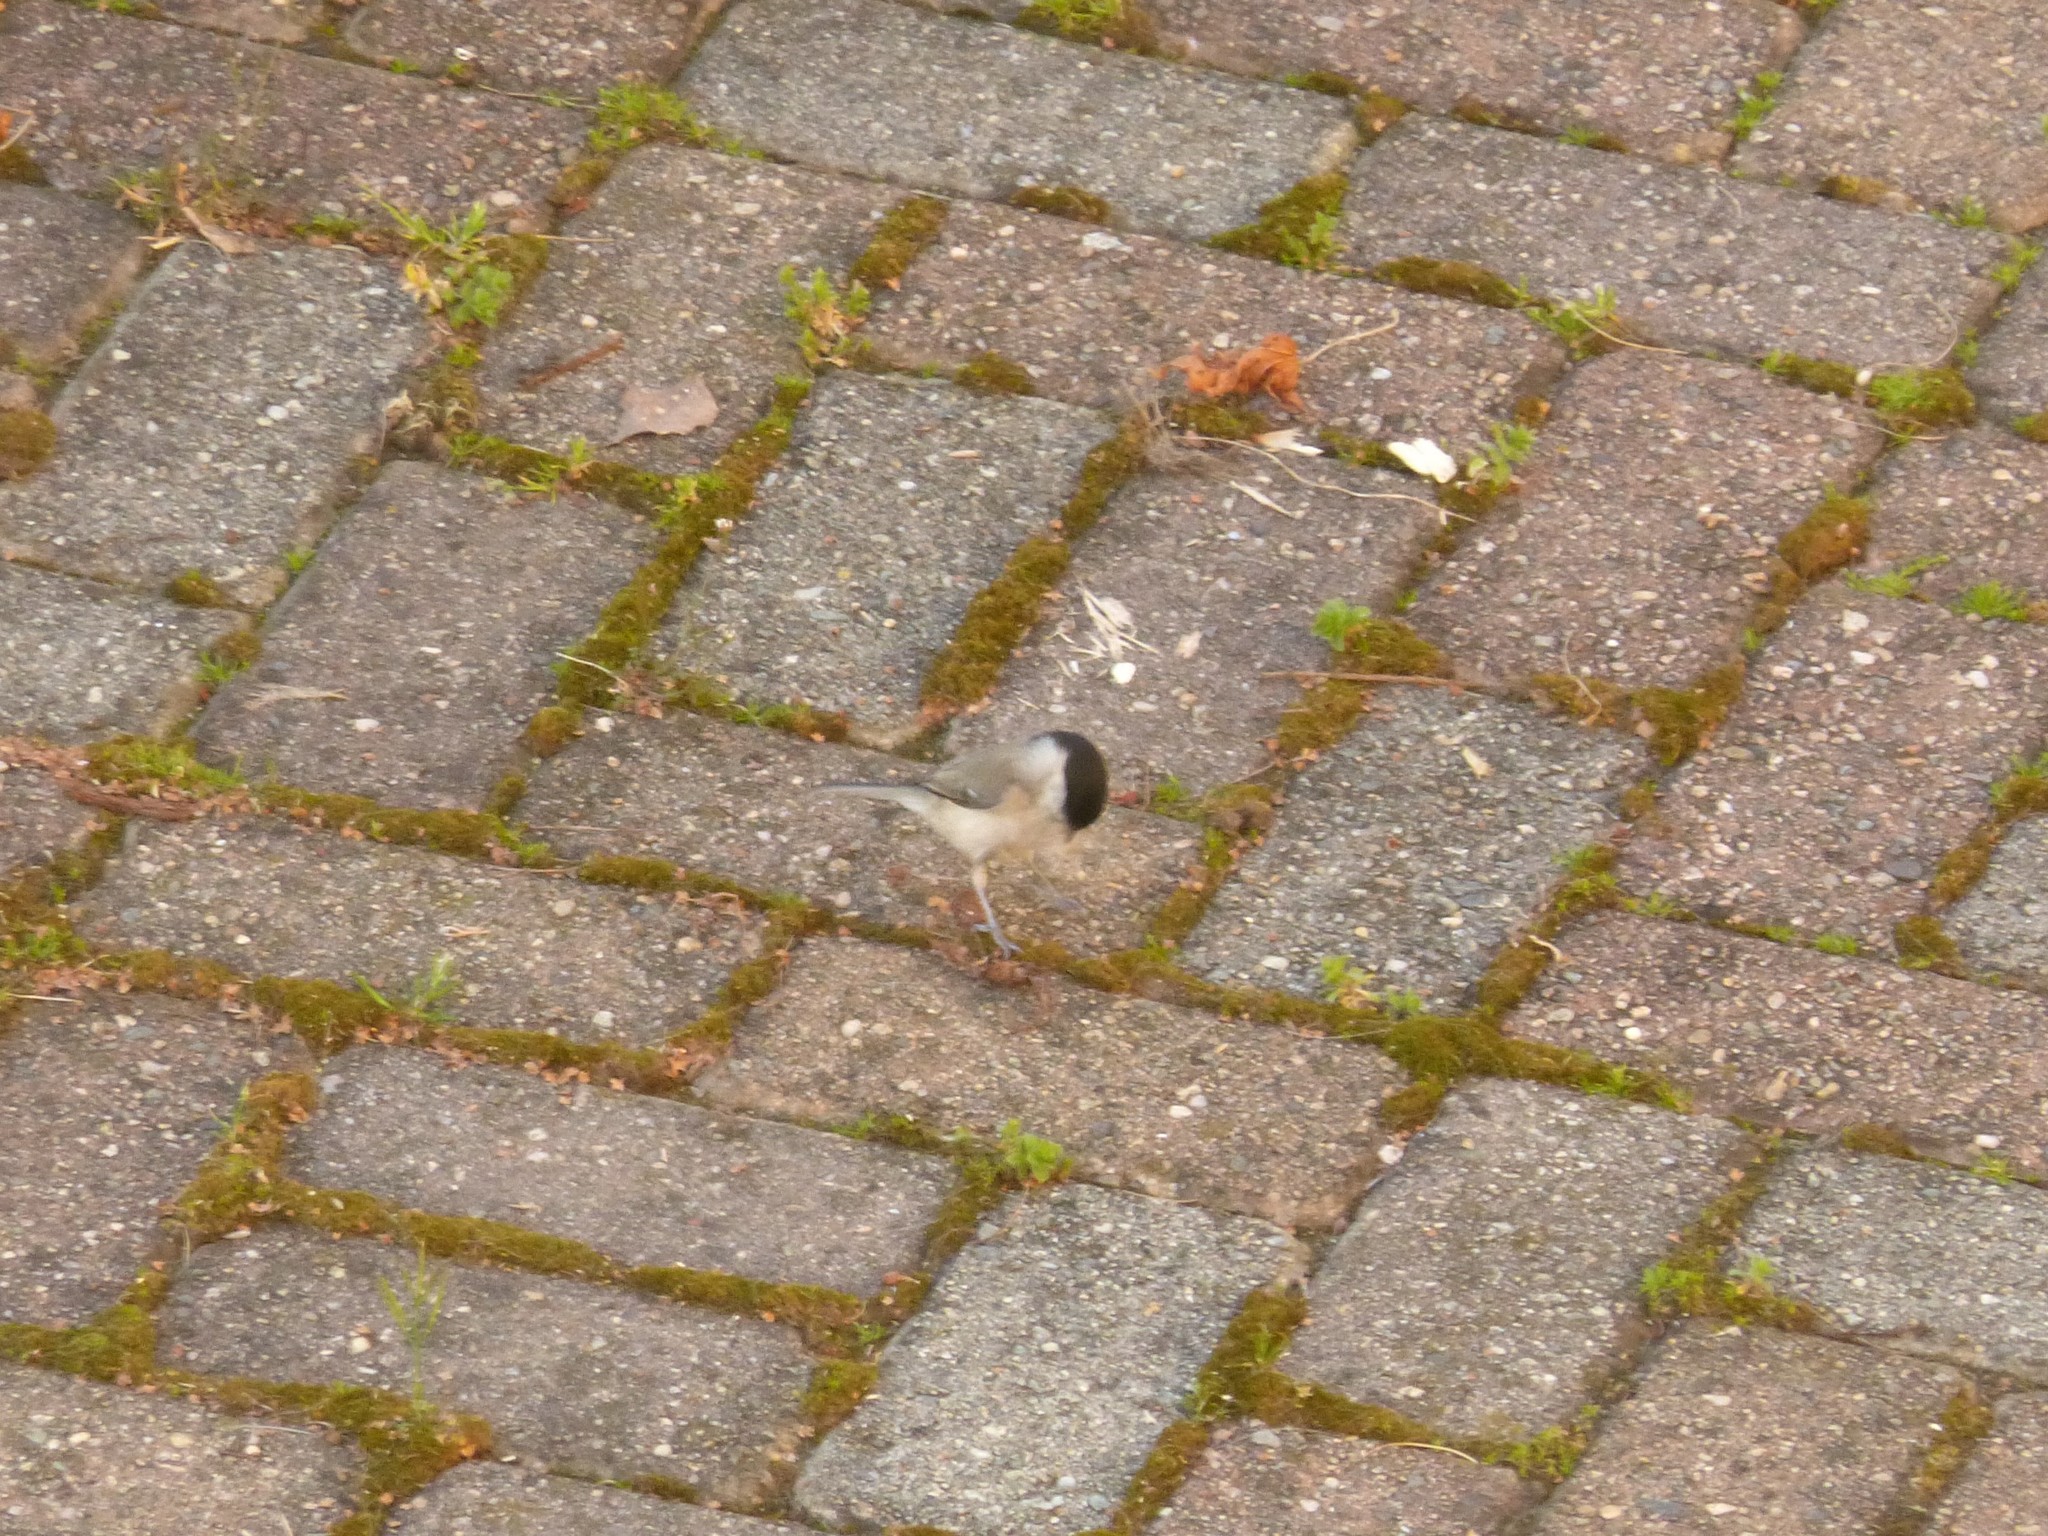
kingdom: Animalia
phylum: Chordata
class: Aves
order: Passeriformes
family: Paridae
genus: Poecile
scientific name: Poecile palustris
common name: Marsh tit
